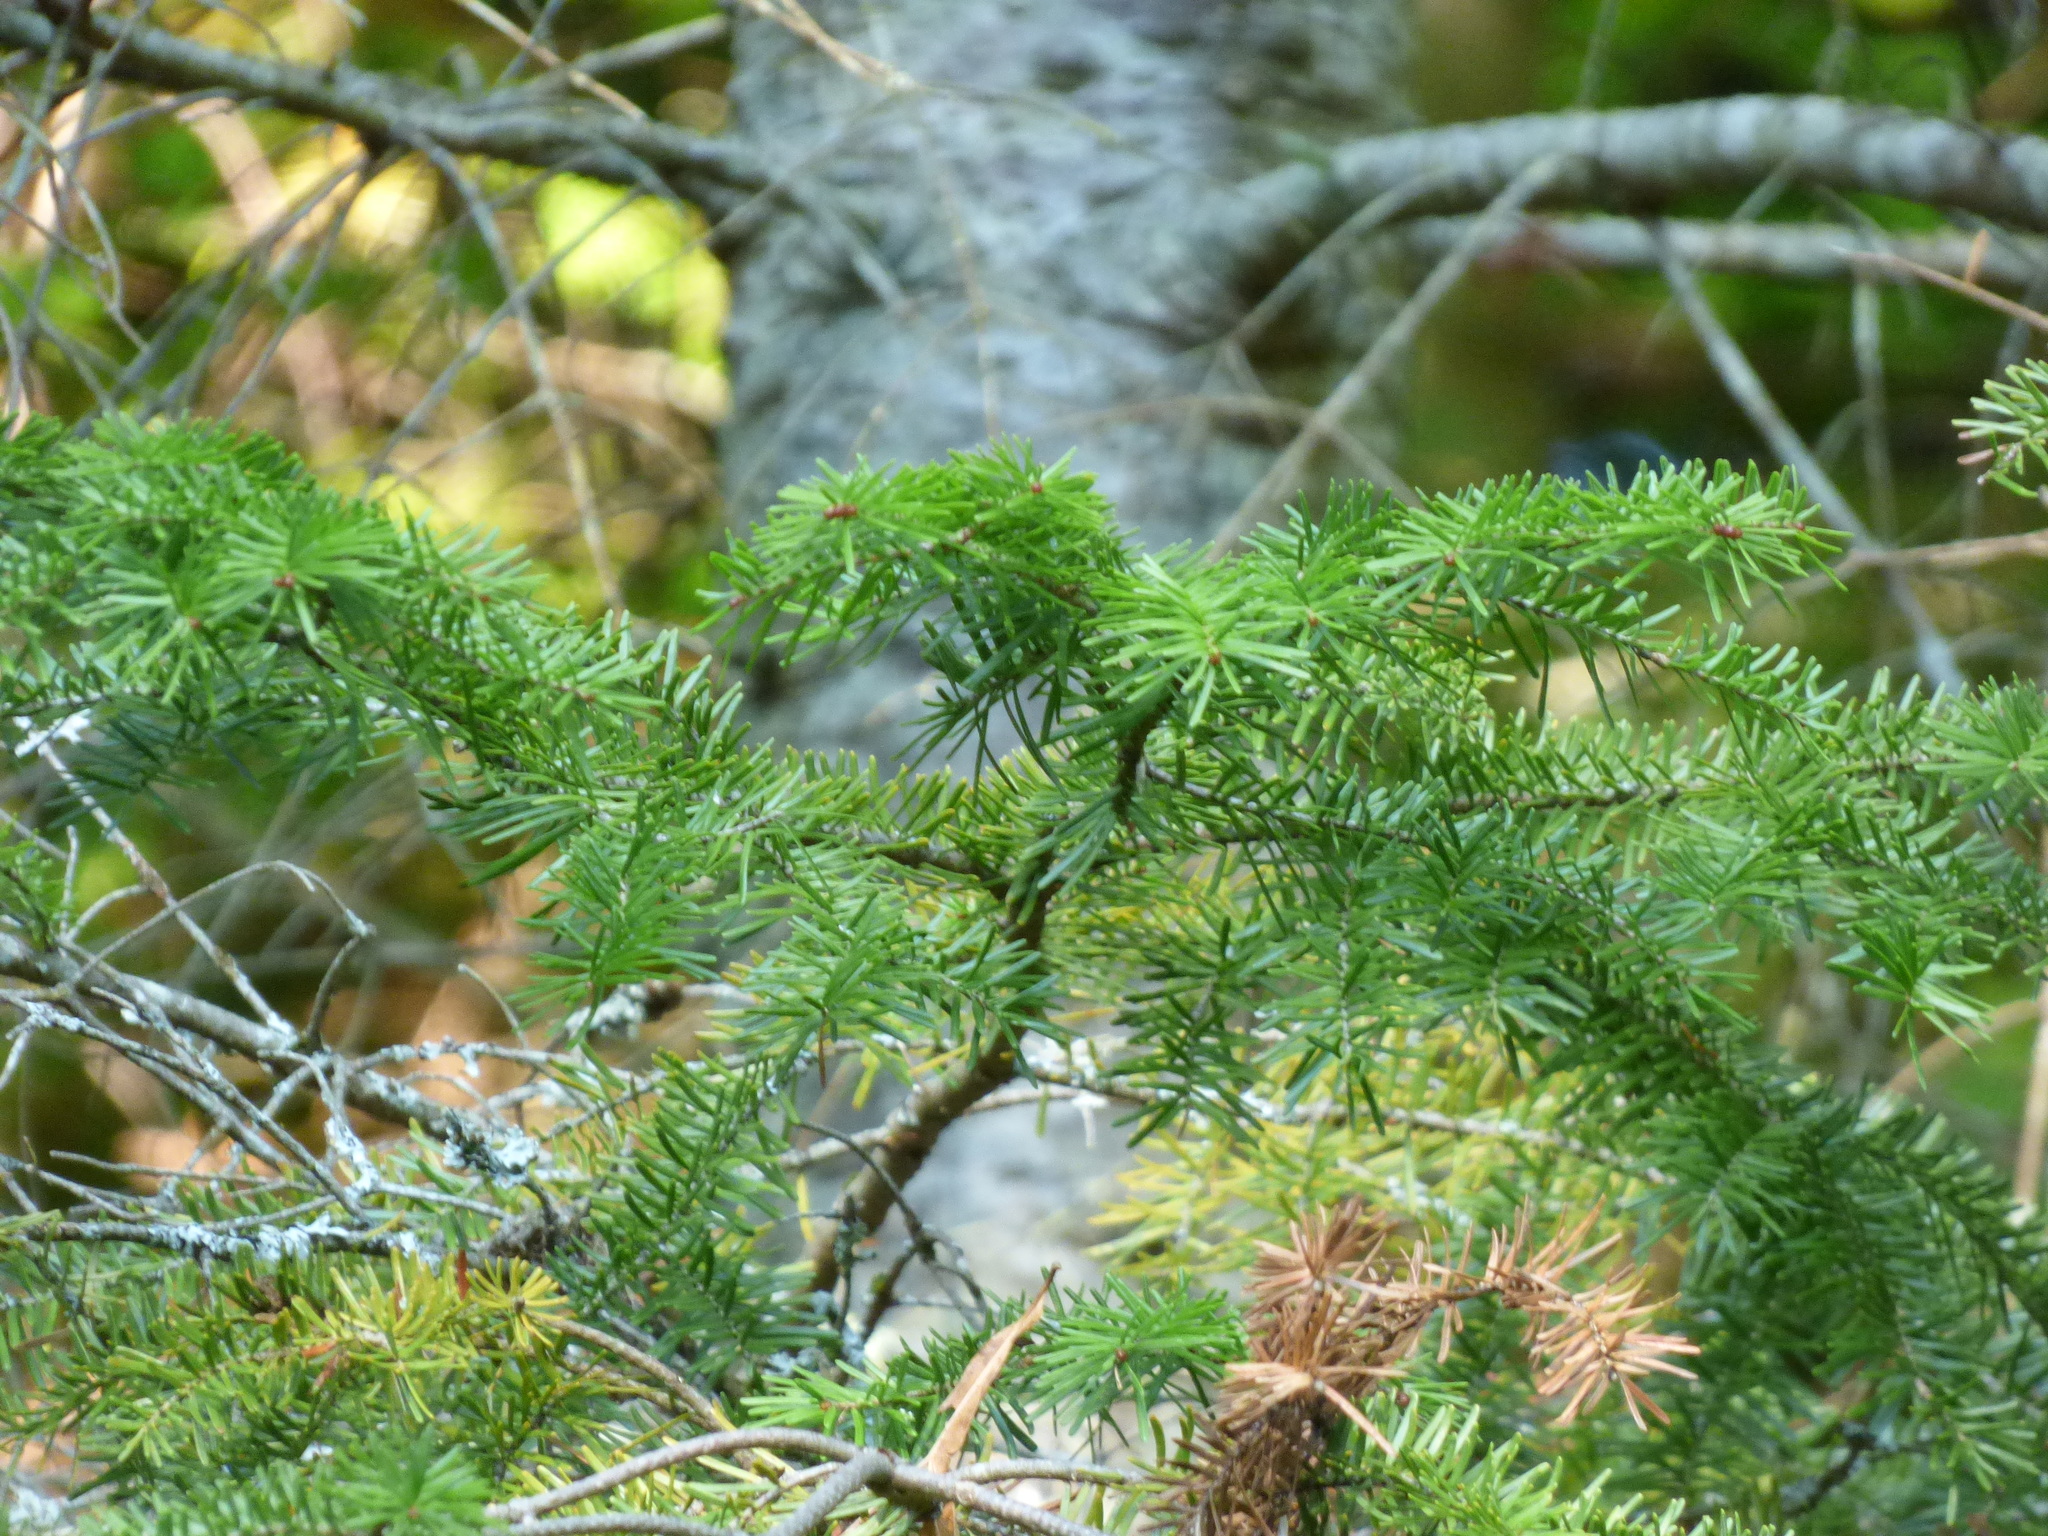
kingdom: Plantae
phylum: Tracheophyta
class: Pinopsida
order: Pinales
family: Pinaceae
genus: Abies
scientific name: Abies balsamea
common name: Balsam fir
